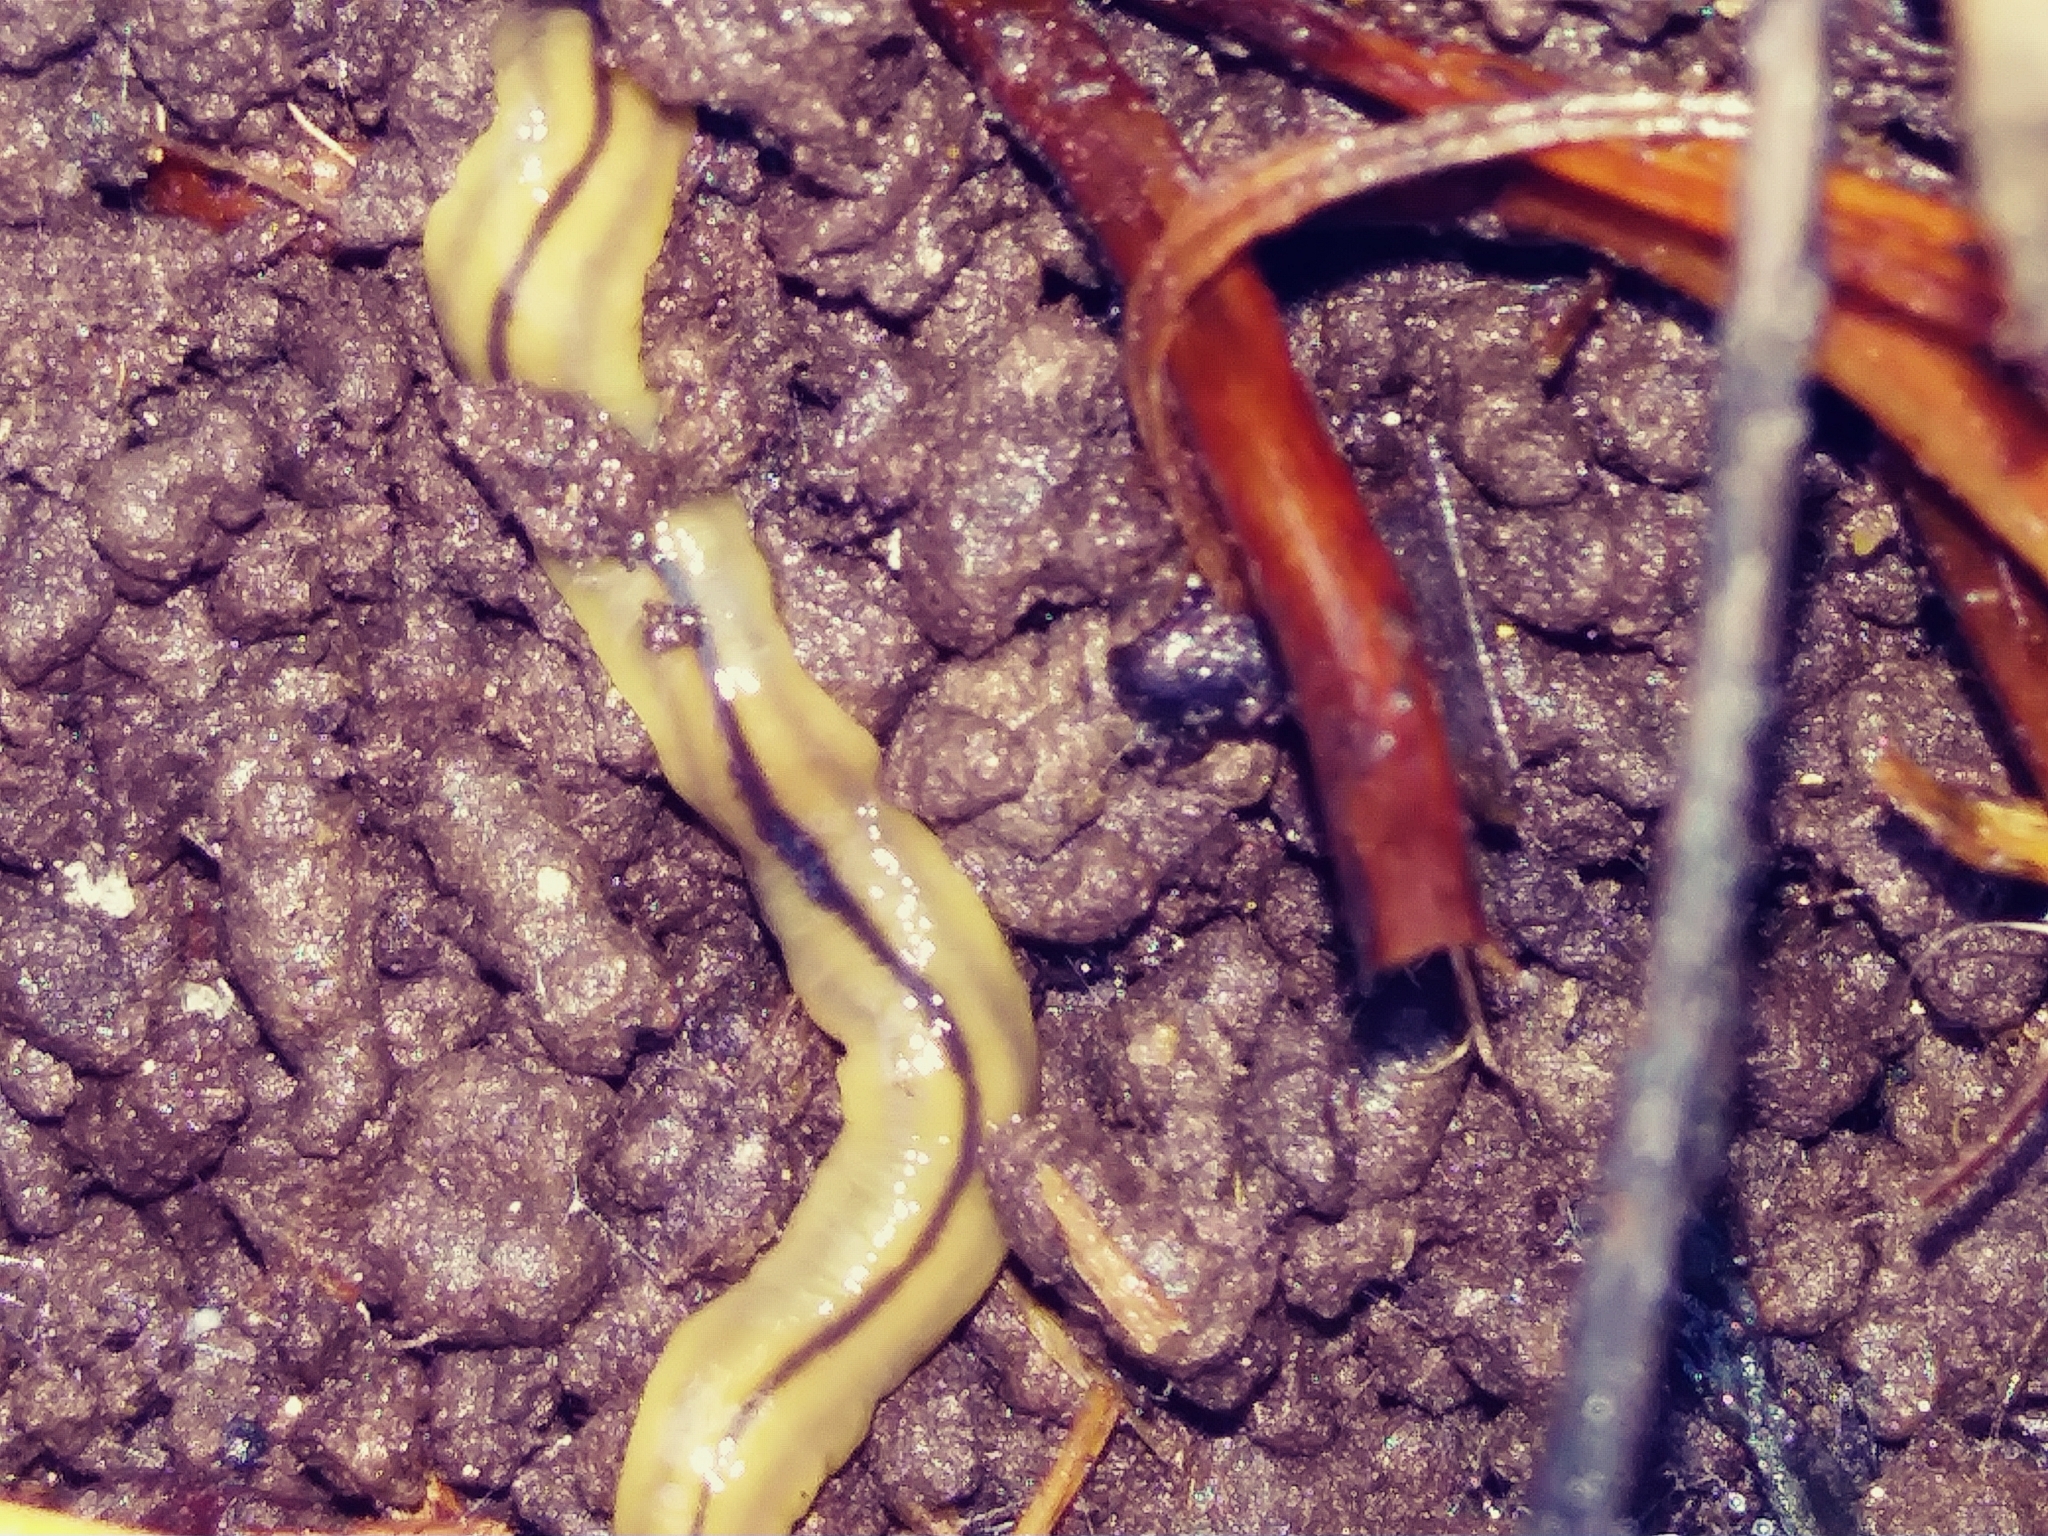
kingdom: Animalia
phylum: Platyhelminthes
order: Tricladida
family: Geoplanidae
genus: Bipalium
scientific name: Bipalium pennsylvanicum
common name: Three-lined land planarian
